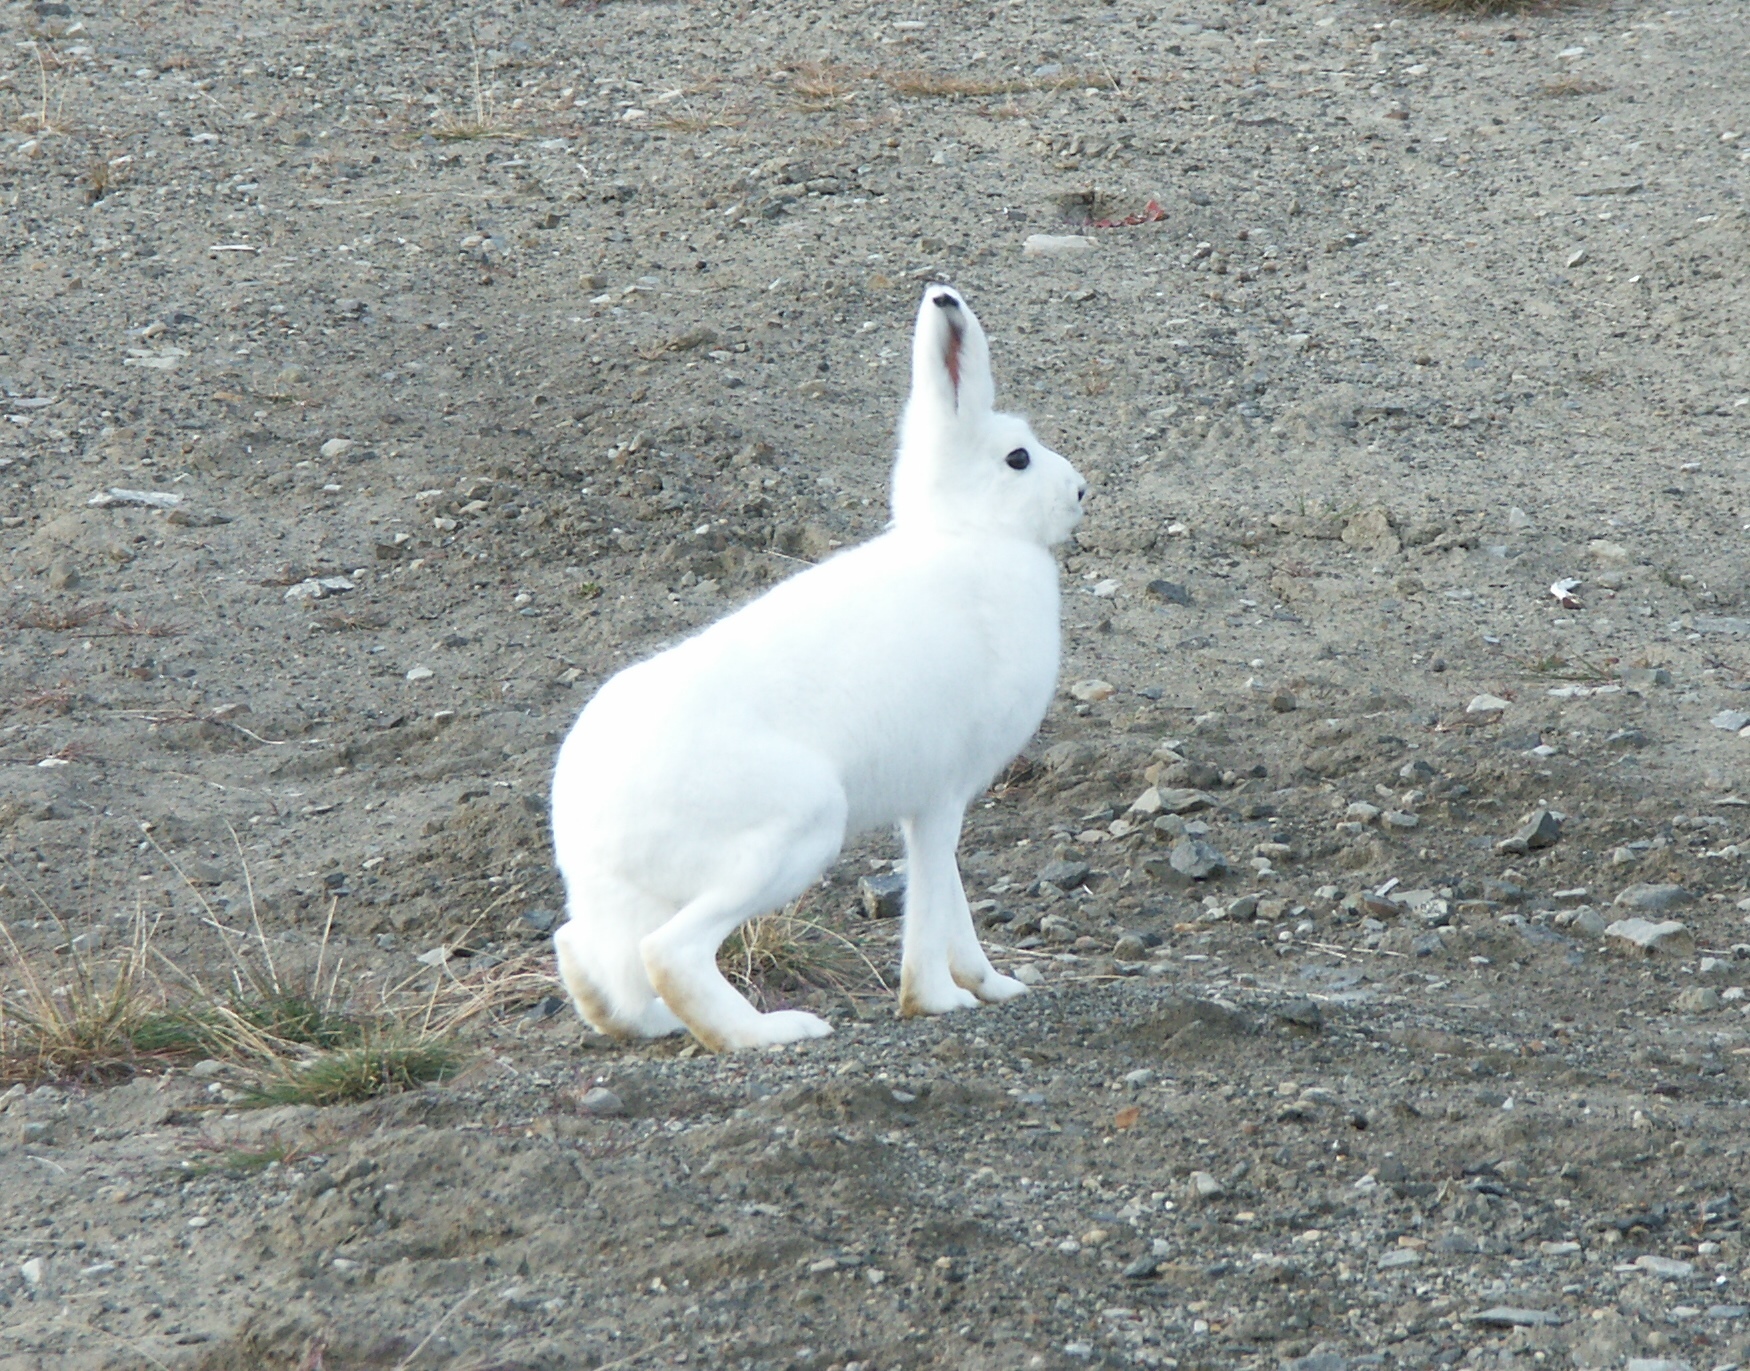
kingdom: Animalia
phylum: Chordata
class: Mammalia
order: Lagomorpha
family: Leporidae
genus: Lepus
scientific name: Lepus arcticus
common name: Arctic hare
